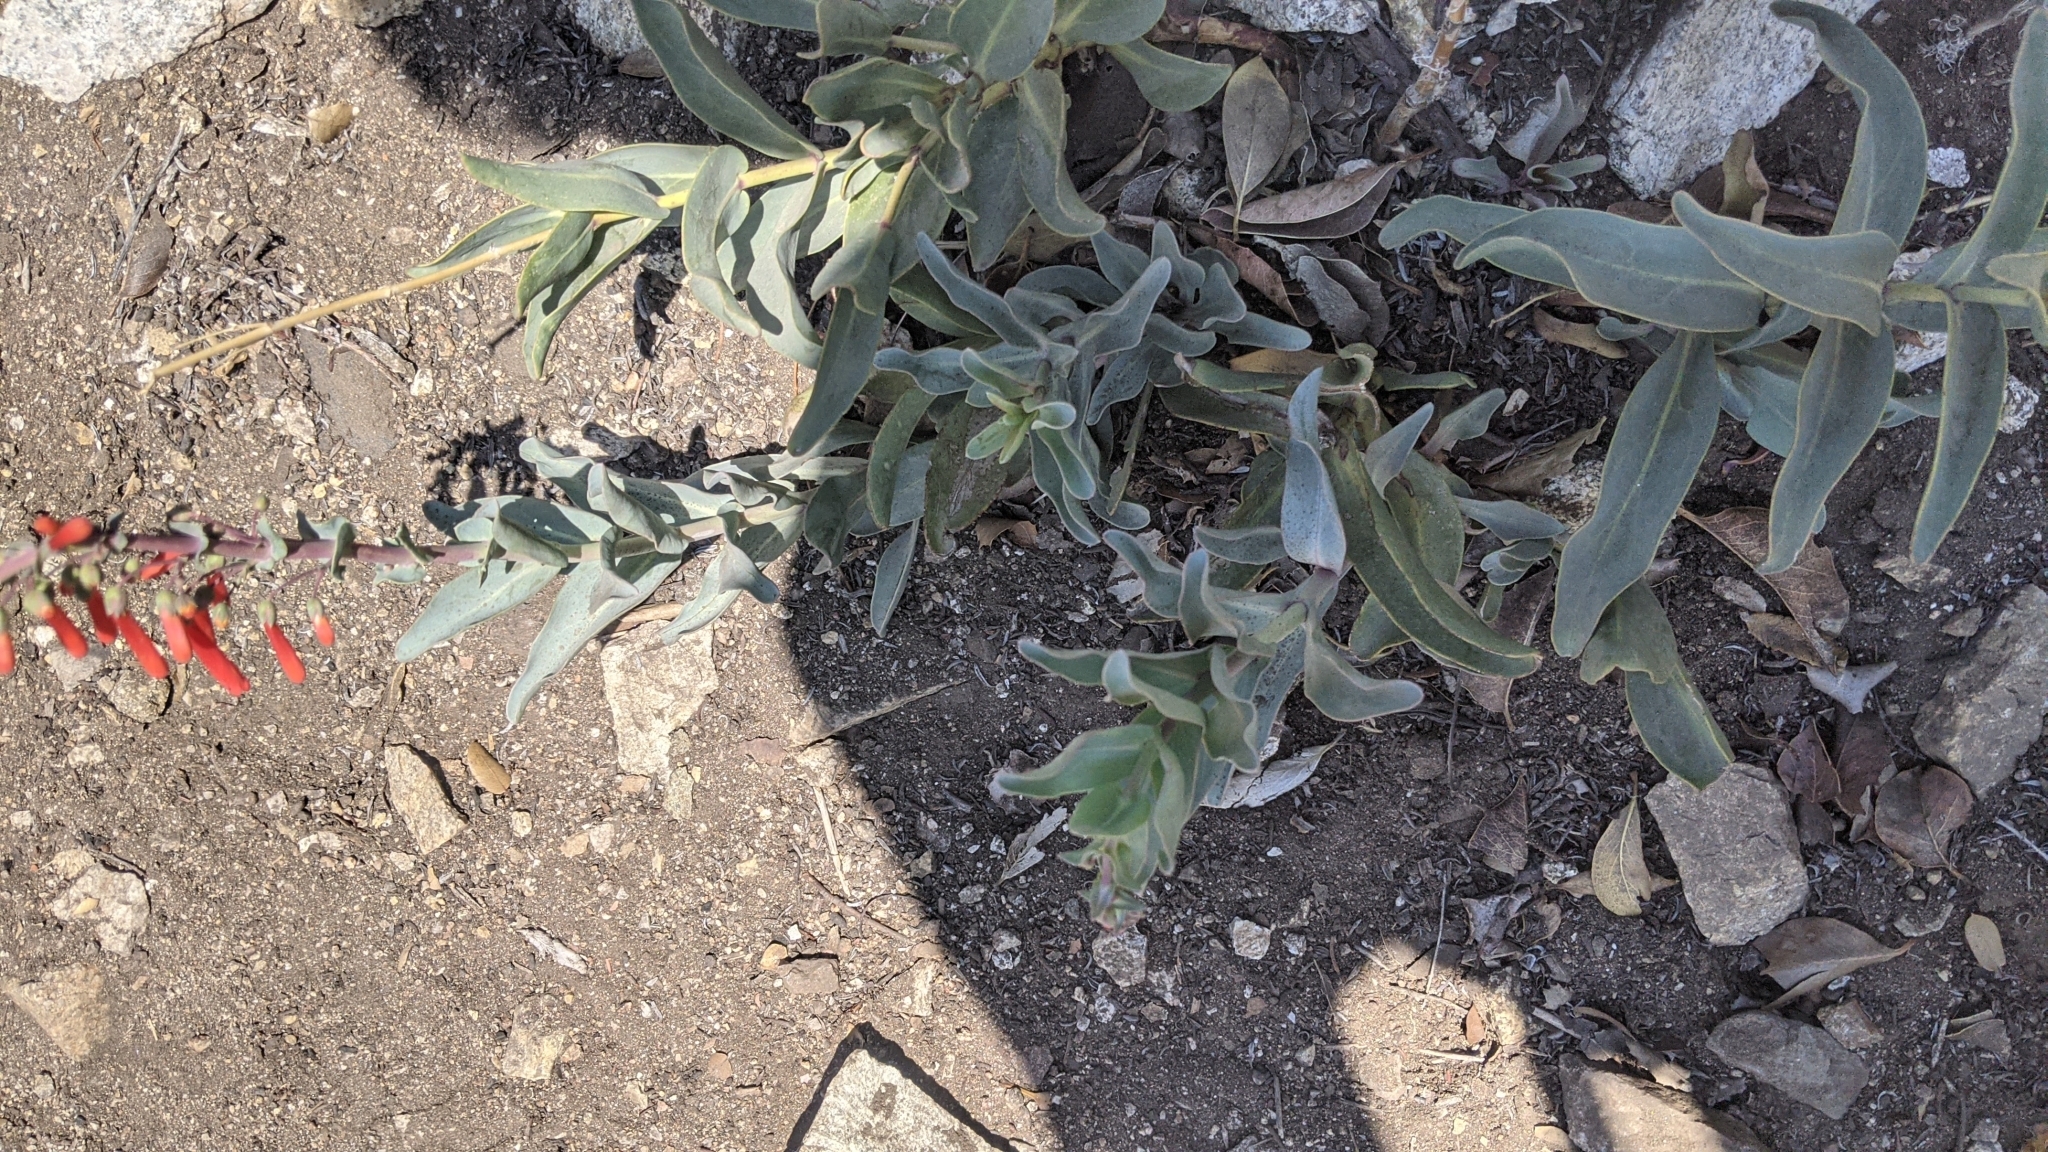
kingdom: Plantae
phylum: Tracheophyta
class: Magnoliopsida
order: Lamiales
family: Plantaginaceae
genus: Penstemon
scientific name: Penstemon centranthifolius
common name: Scarlet bugler
